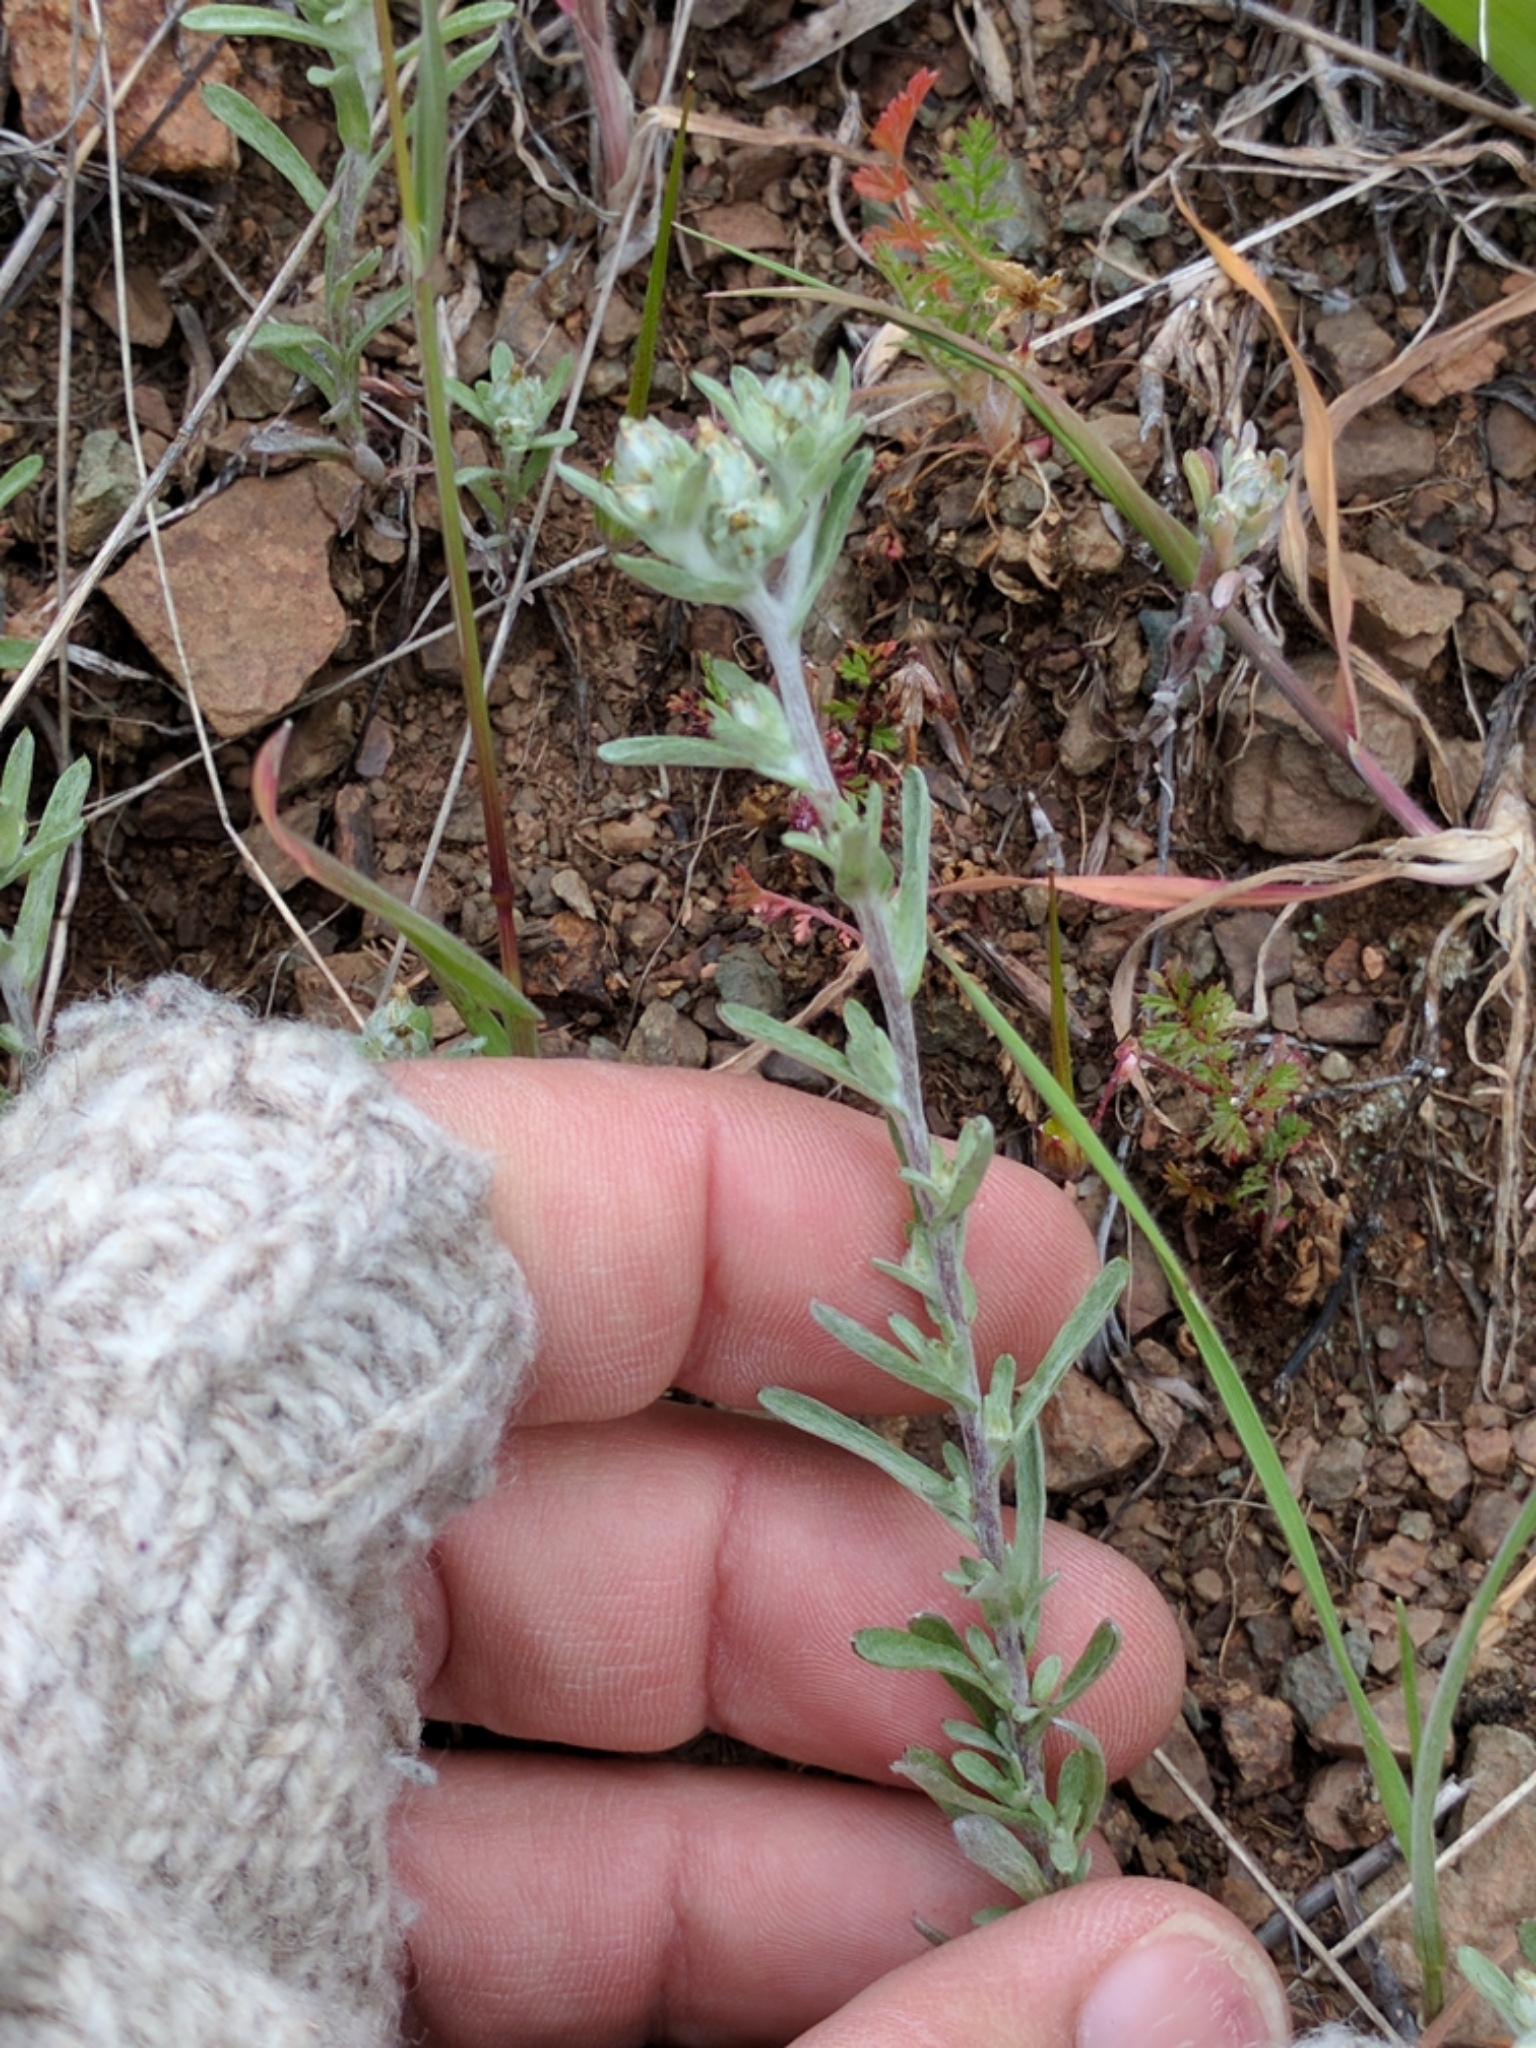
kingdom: Plantae
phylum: Tracheophyta
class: Magnoliopsida
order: Asterales
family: Asteraceae
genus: Logfia
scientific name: Logfia californica
